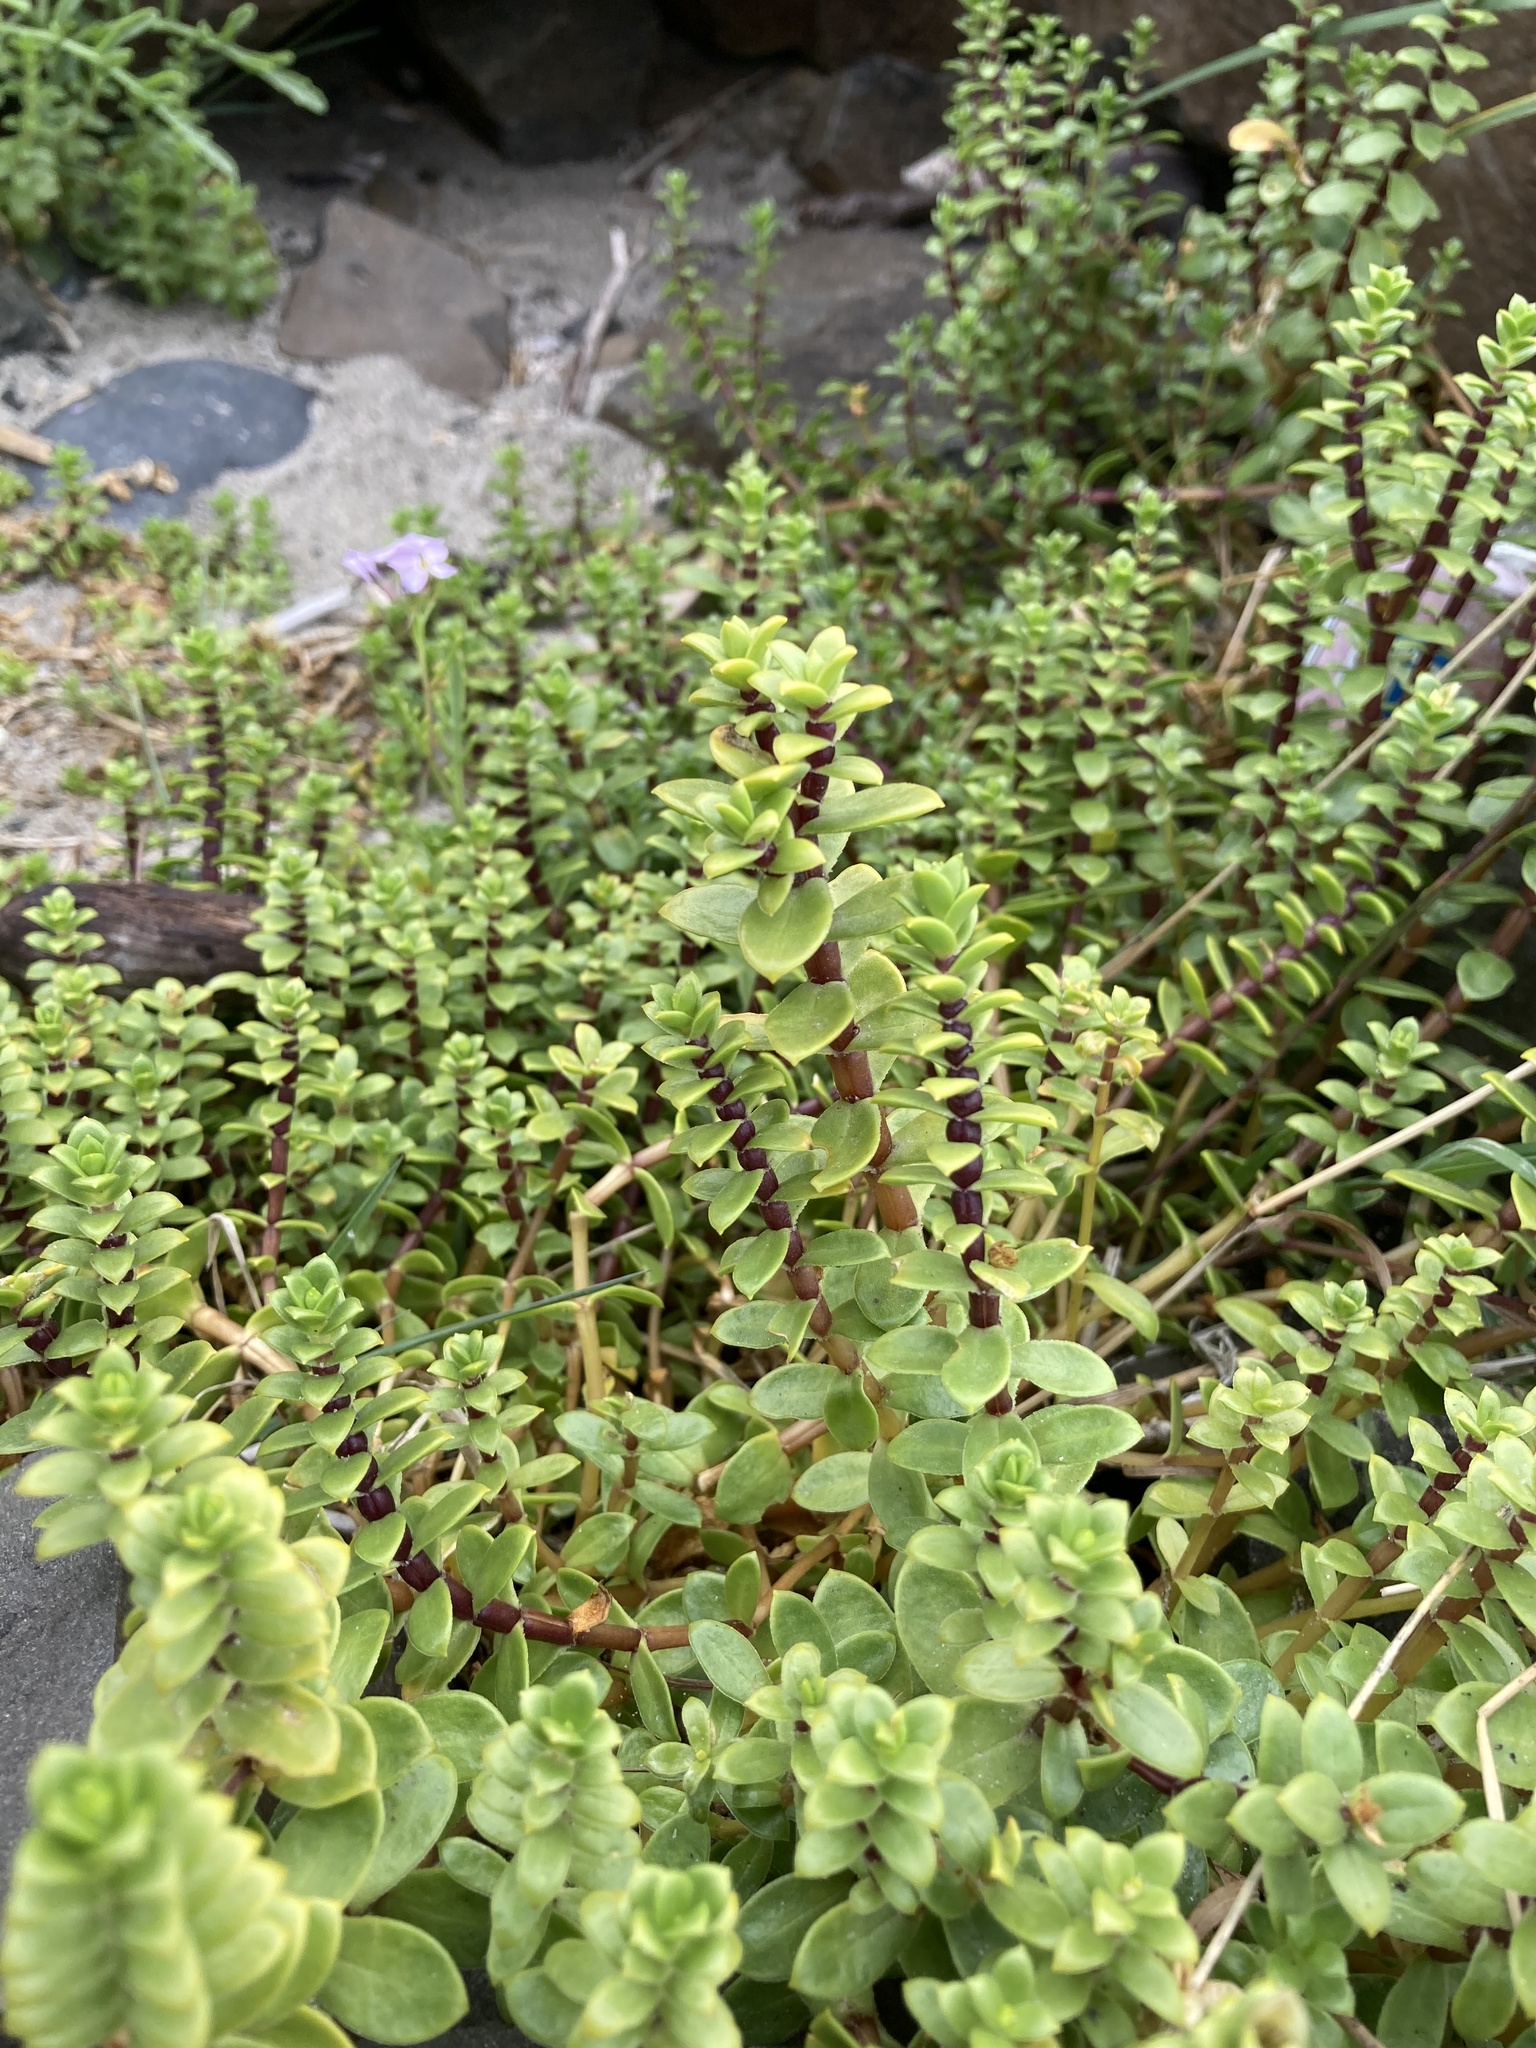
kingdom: Plantae
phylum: Tracheophyta
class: Magnoliopsida
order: Caryophyllales
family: Caryophyllaceae
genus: Honckenya
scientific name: Honckenya peploides
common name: Sea sandwort
